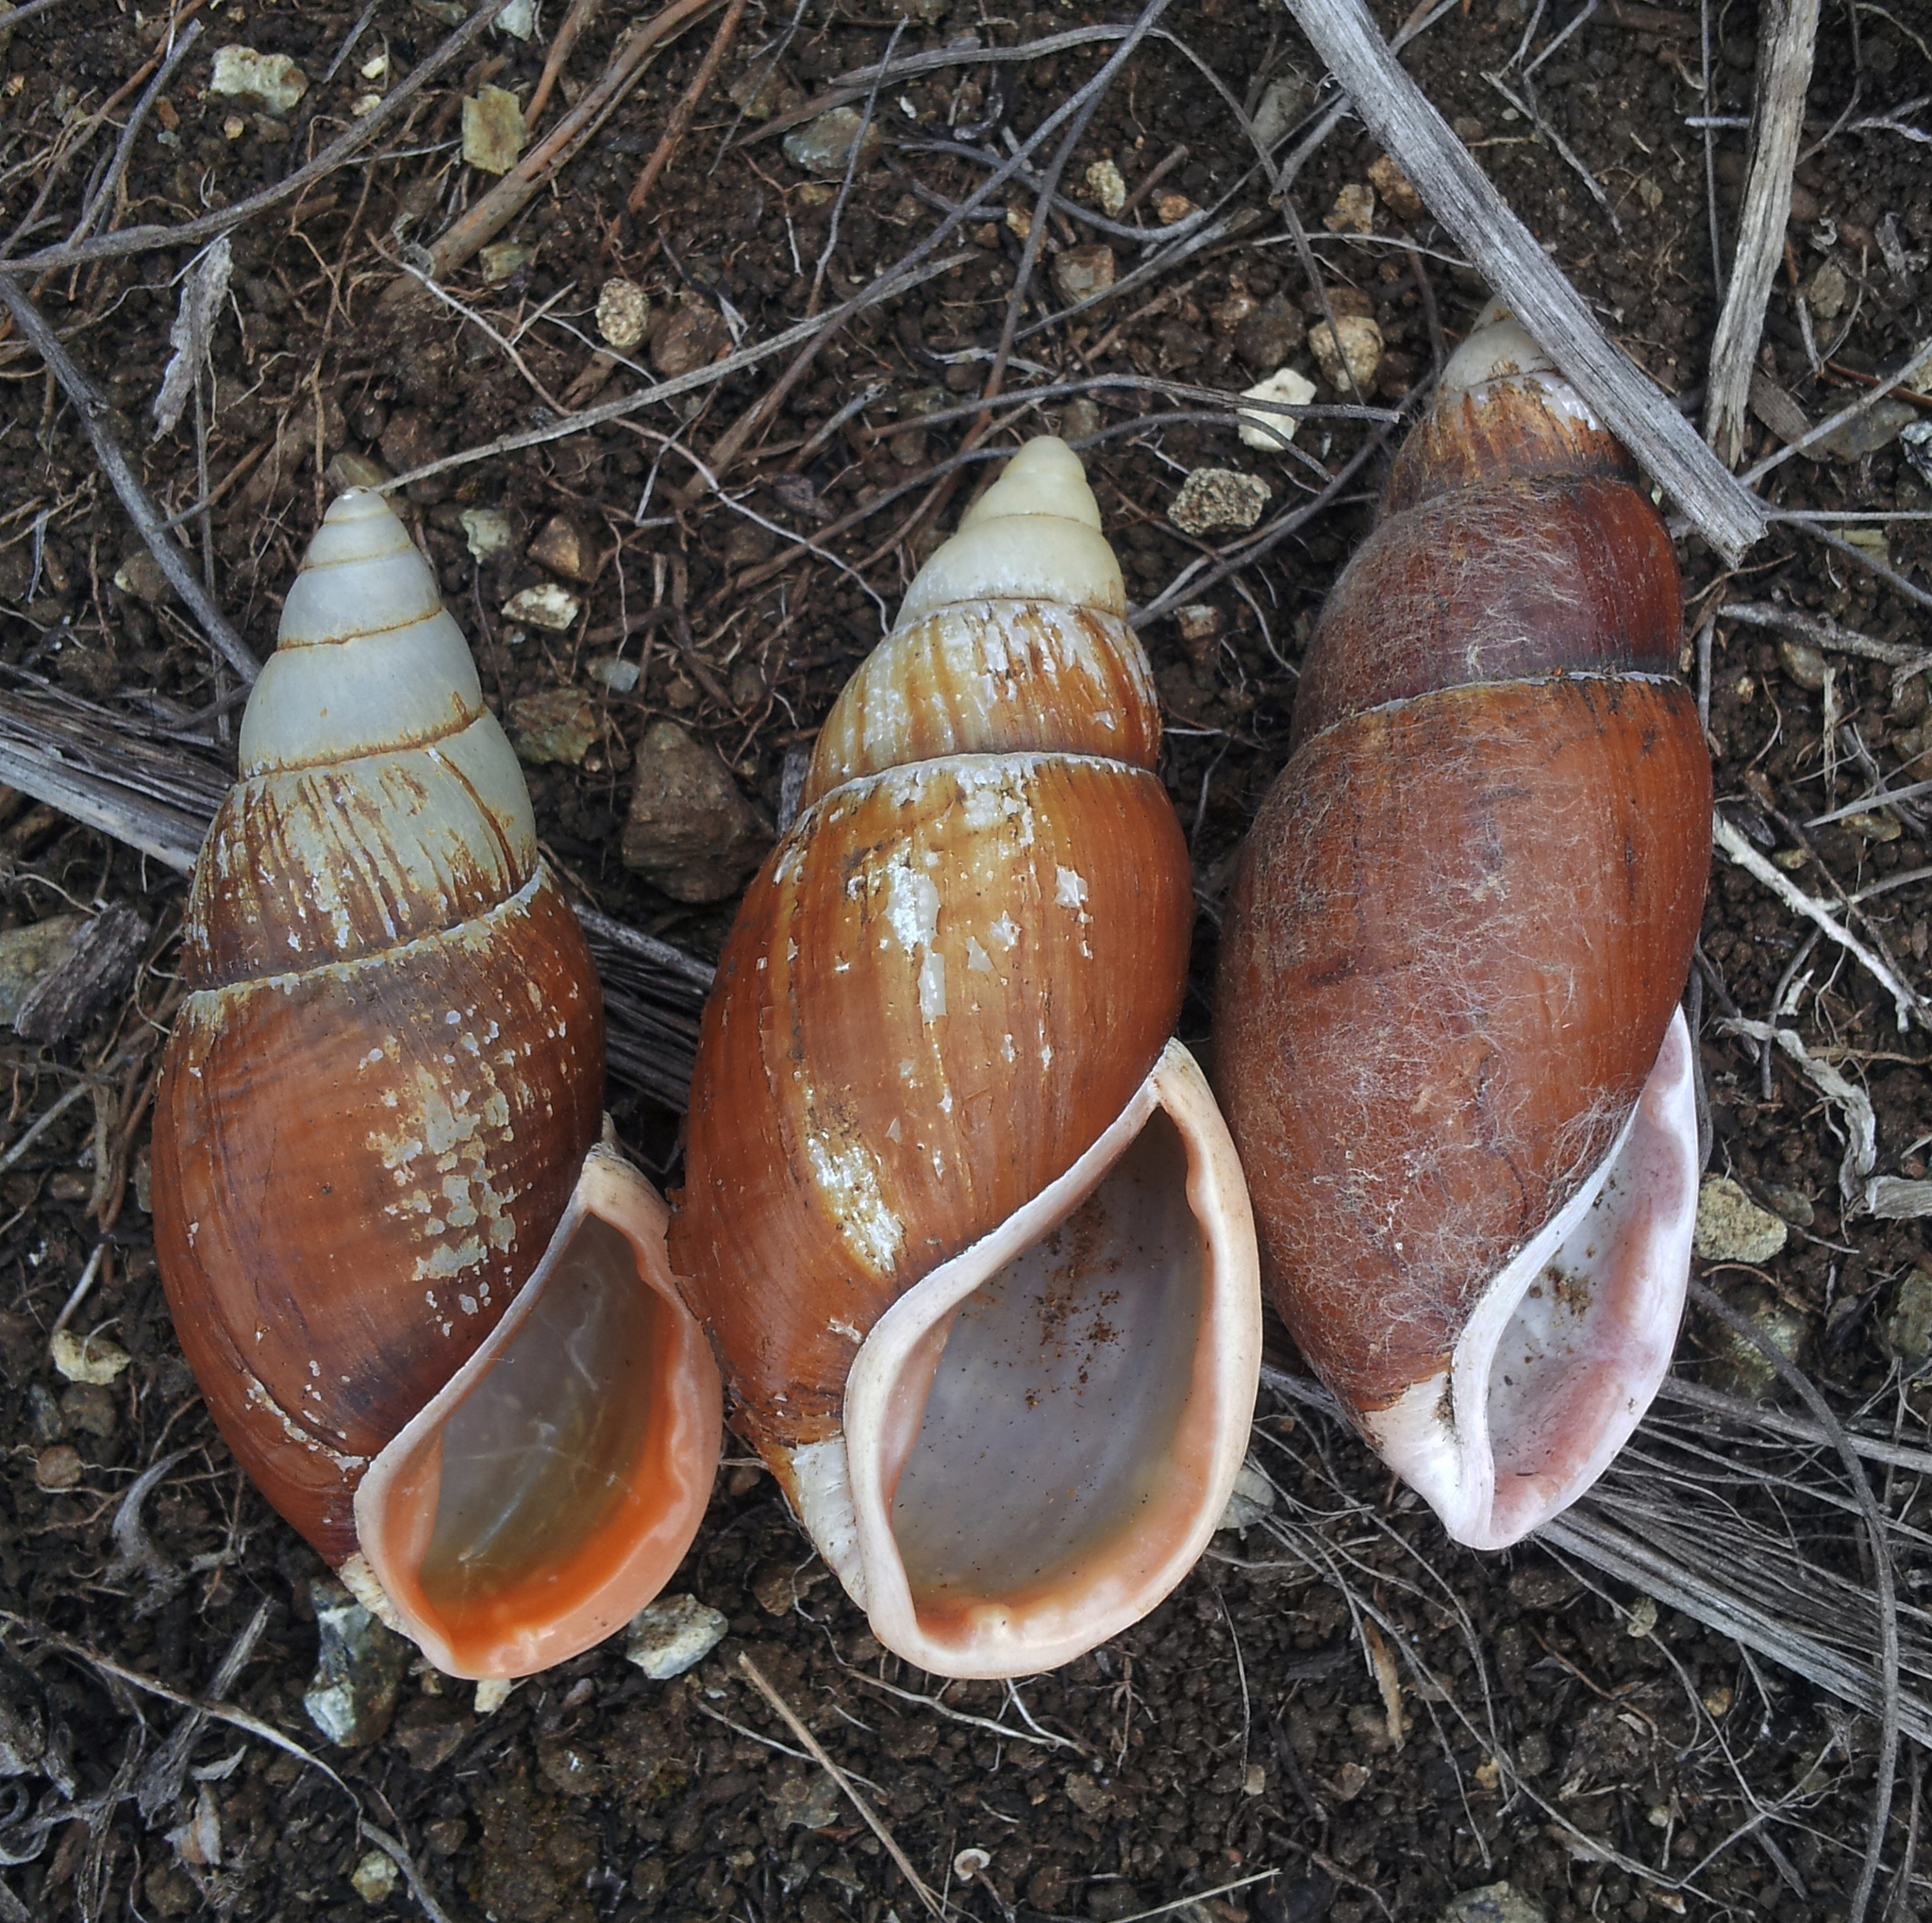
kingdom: Animalia
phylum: Mollusca
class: Gastropoda
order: Stylommatophora
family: Bothriembryontidae
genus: Maoristylus
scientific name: Maoristylus ambagiosus
